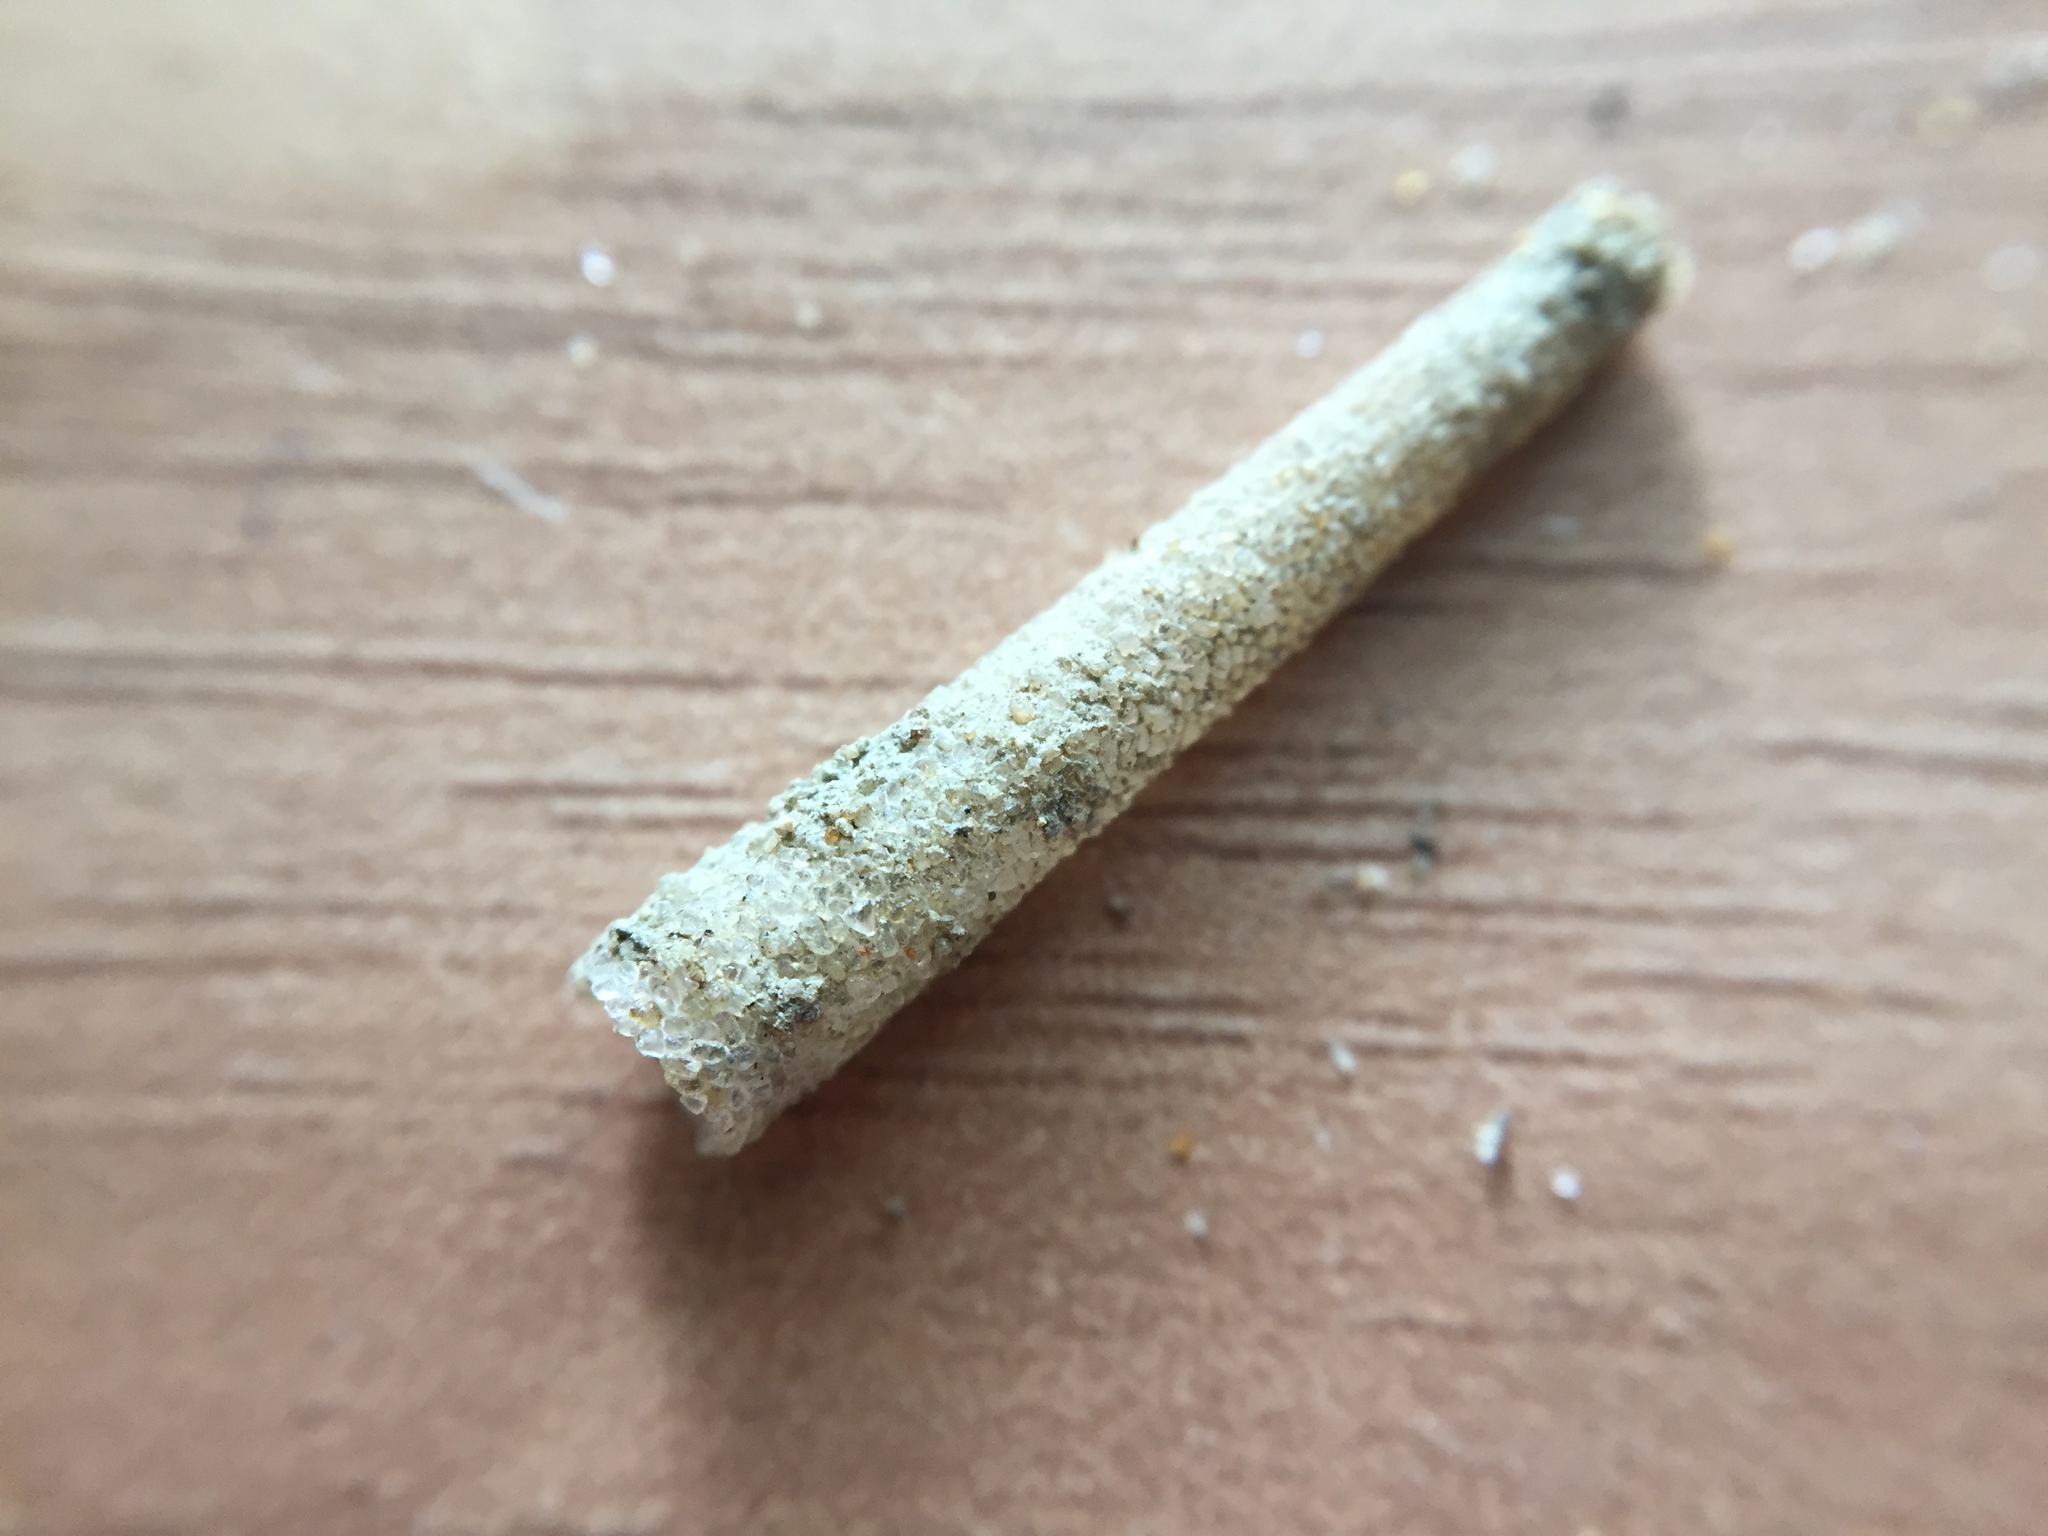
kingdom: Animalia
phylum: Annelida
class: Polychaeta
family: Pectinariidae
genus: Lagis
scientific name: Lagis australis
